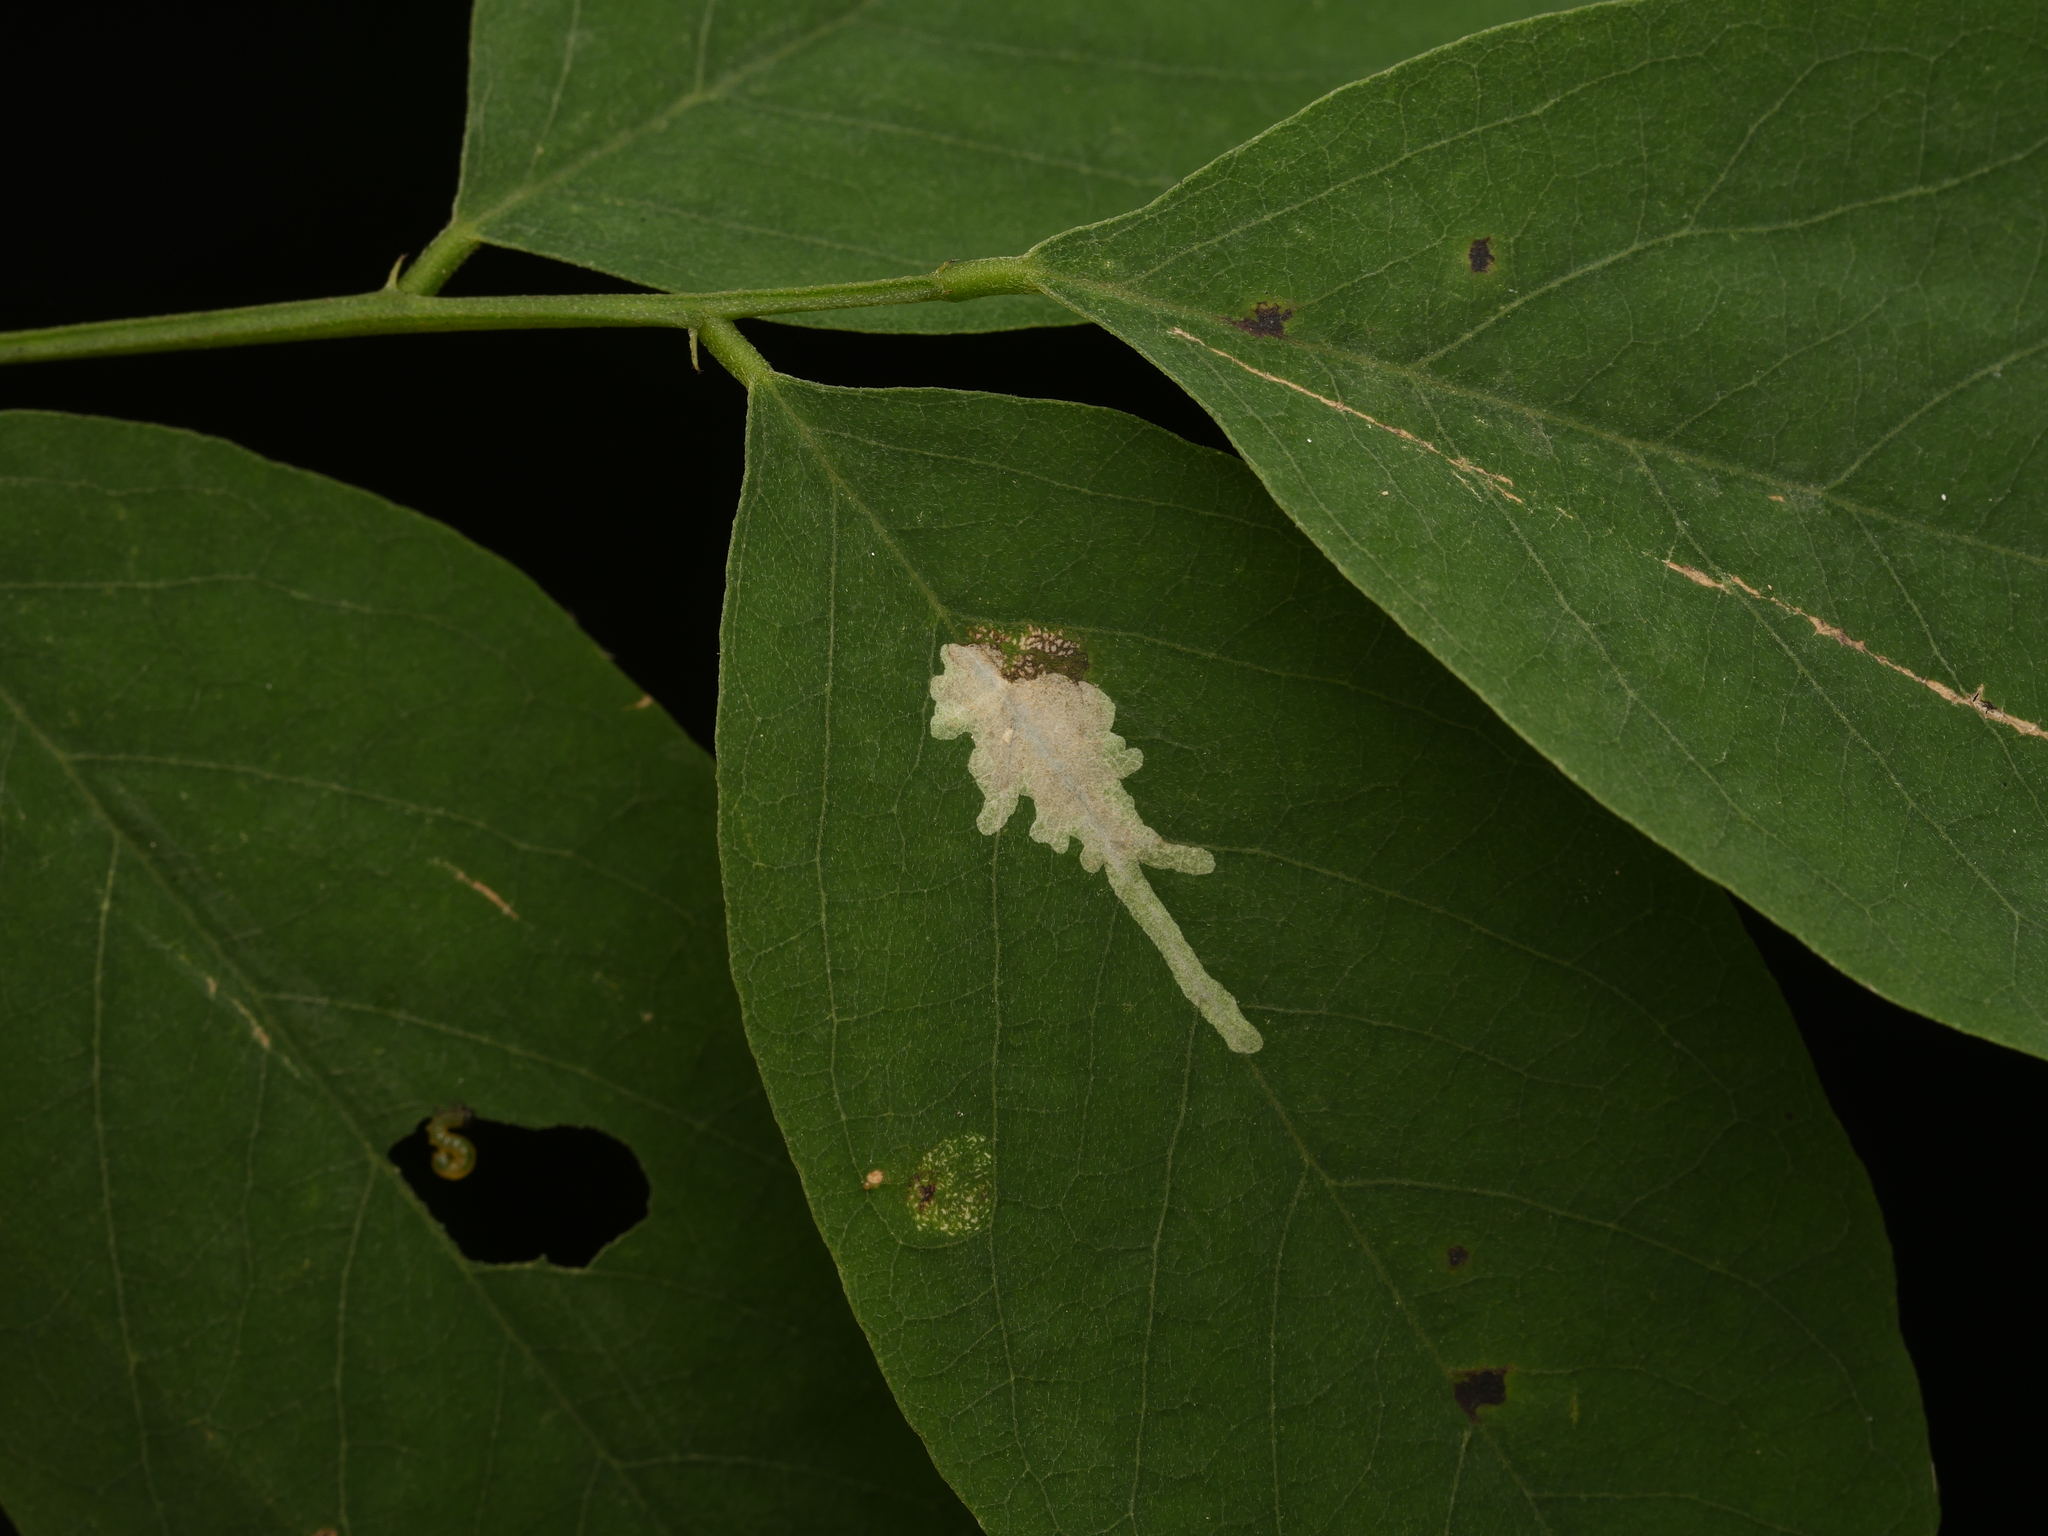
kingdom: Animalia
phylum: Arthropoda
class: Insecta
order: Lepidoptera
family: Gracillariidae
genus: Parectopa
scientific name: Parectopa robiniella
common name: Locust digitate leafminer
